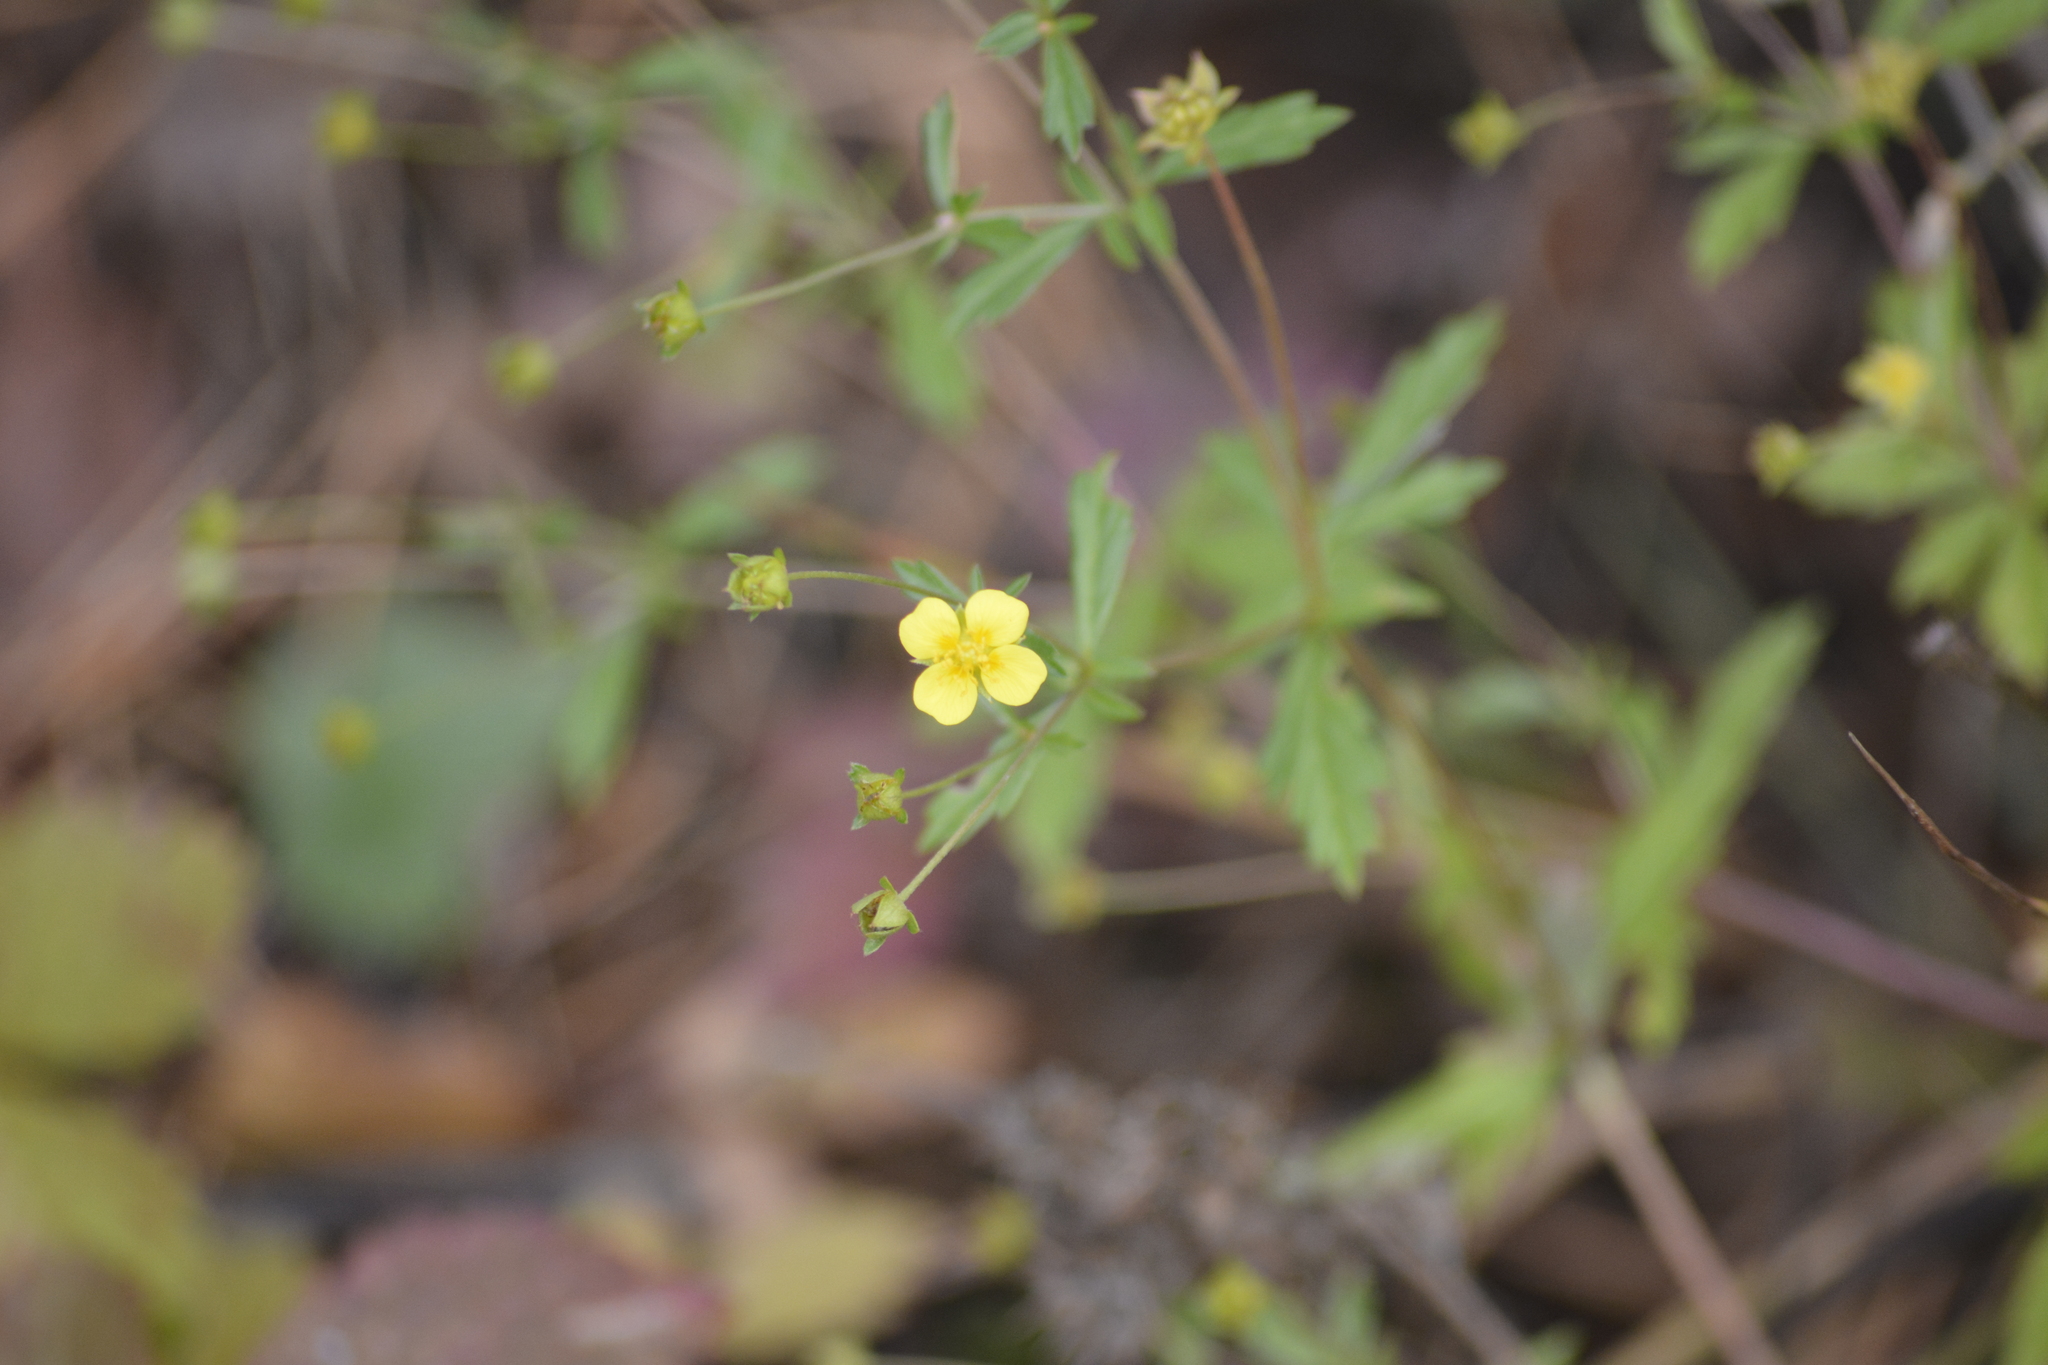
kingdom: Plantae
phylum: Tracheophyta
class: Magnoliopsida
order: Rosales
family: Rosaceae
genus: Potentilla
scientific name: Potentilla erecta
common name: Tormentil
